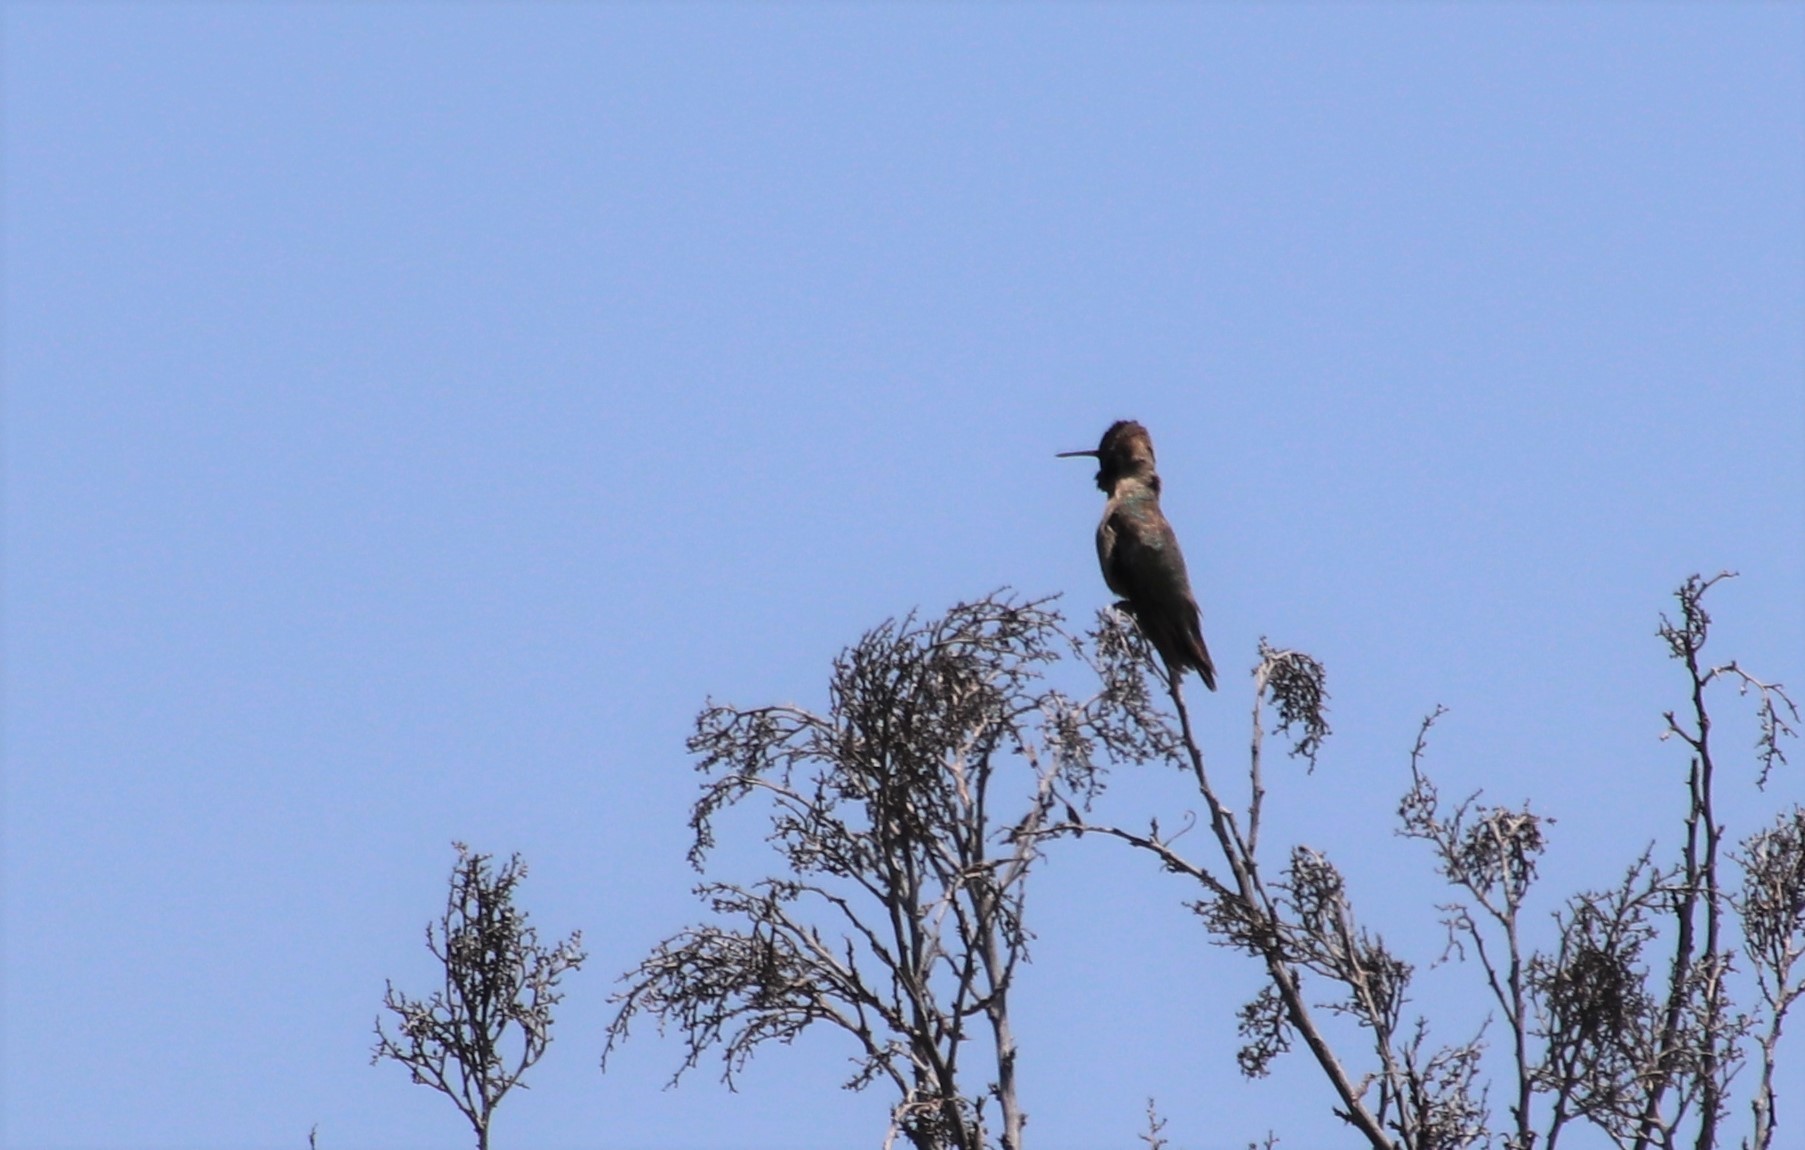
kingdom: Animalia
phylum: Chordata
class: Aves
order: Apodiformes
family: Trochilidae
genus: Calypte
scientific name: Calypte anna
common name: Anna's hummingbird
